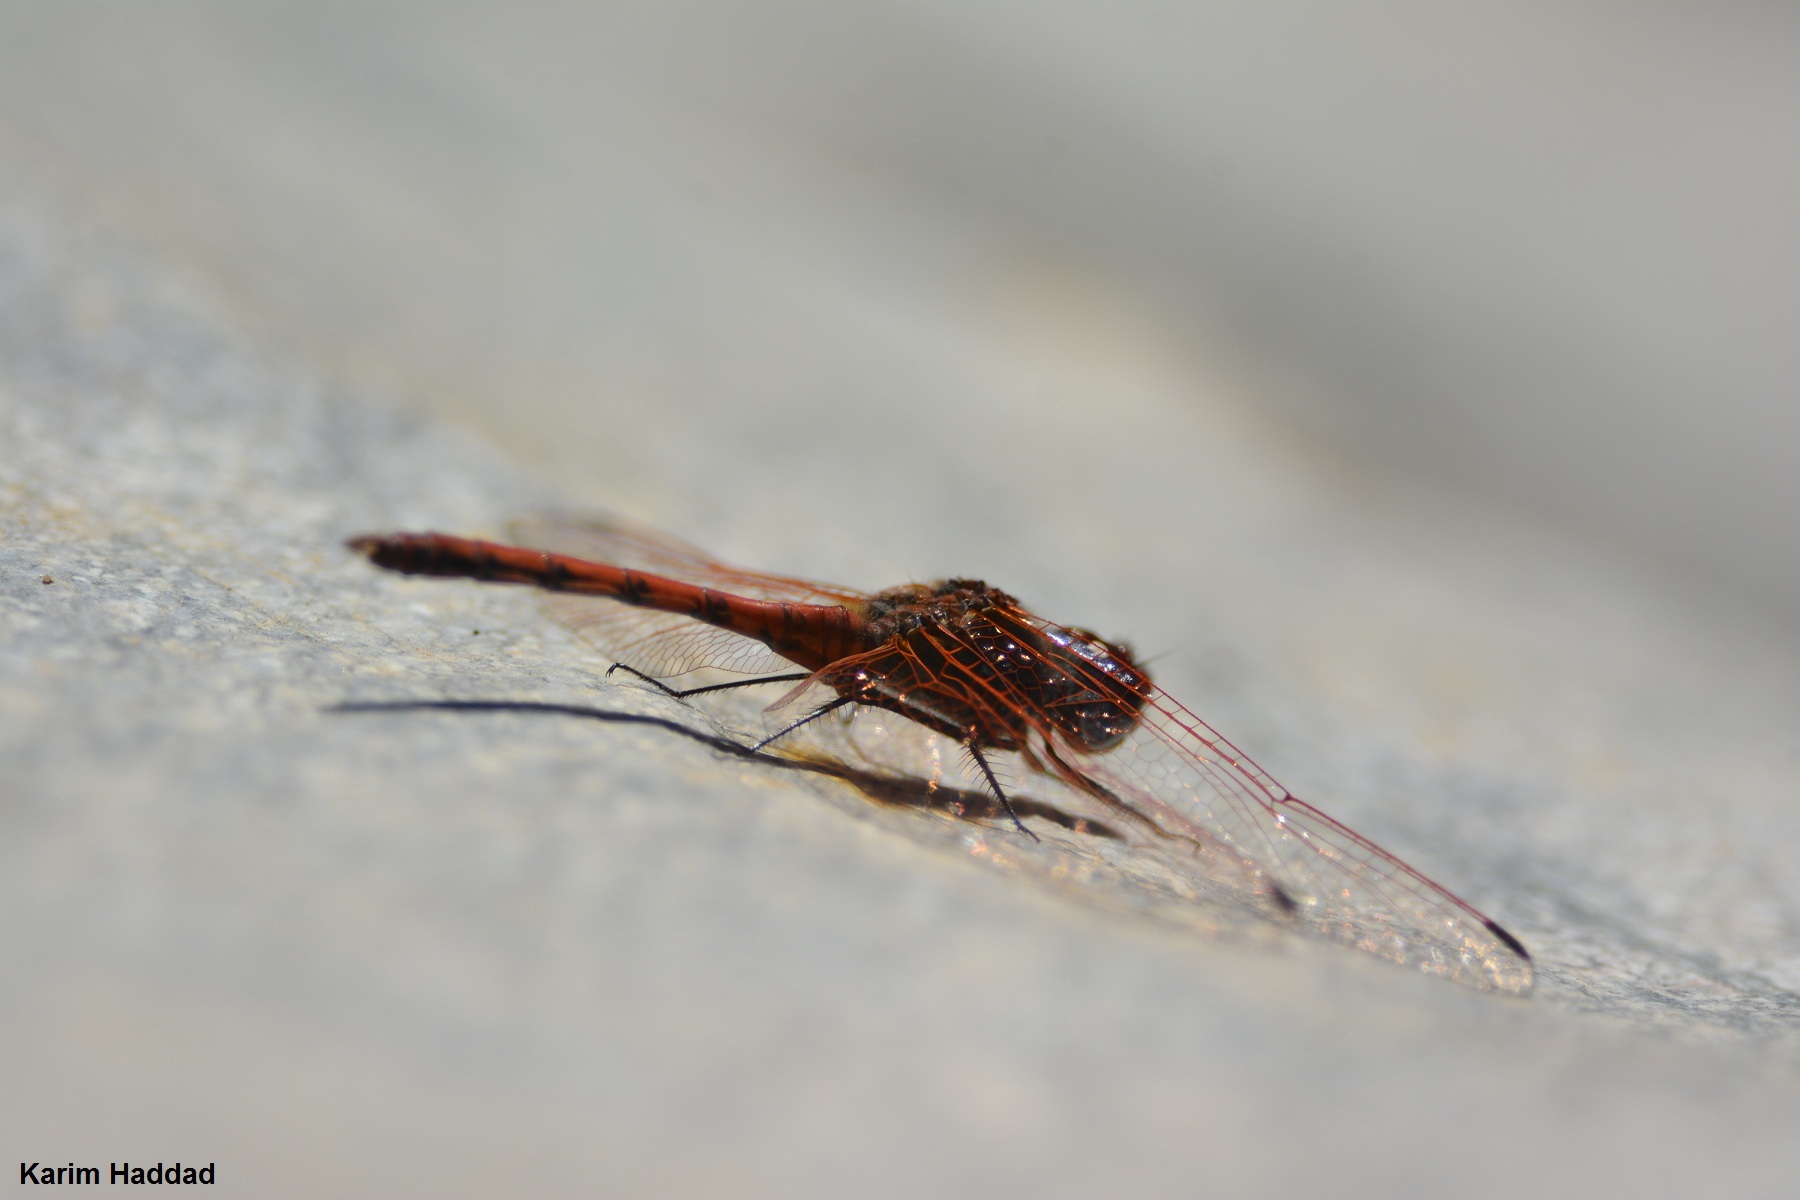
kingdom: Animalia
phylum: Arthropoda
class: Insecta
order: Odonata
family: Libellulidae
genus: Trithemis
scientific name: Trithemis arteriosa
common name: Red-veined dropwing
